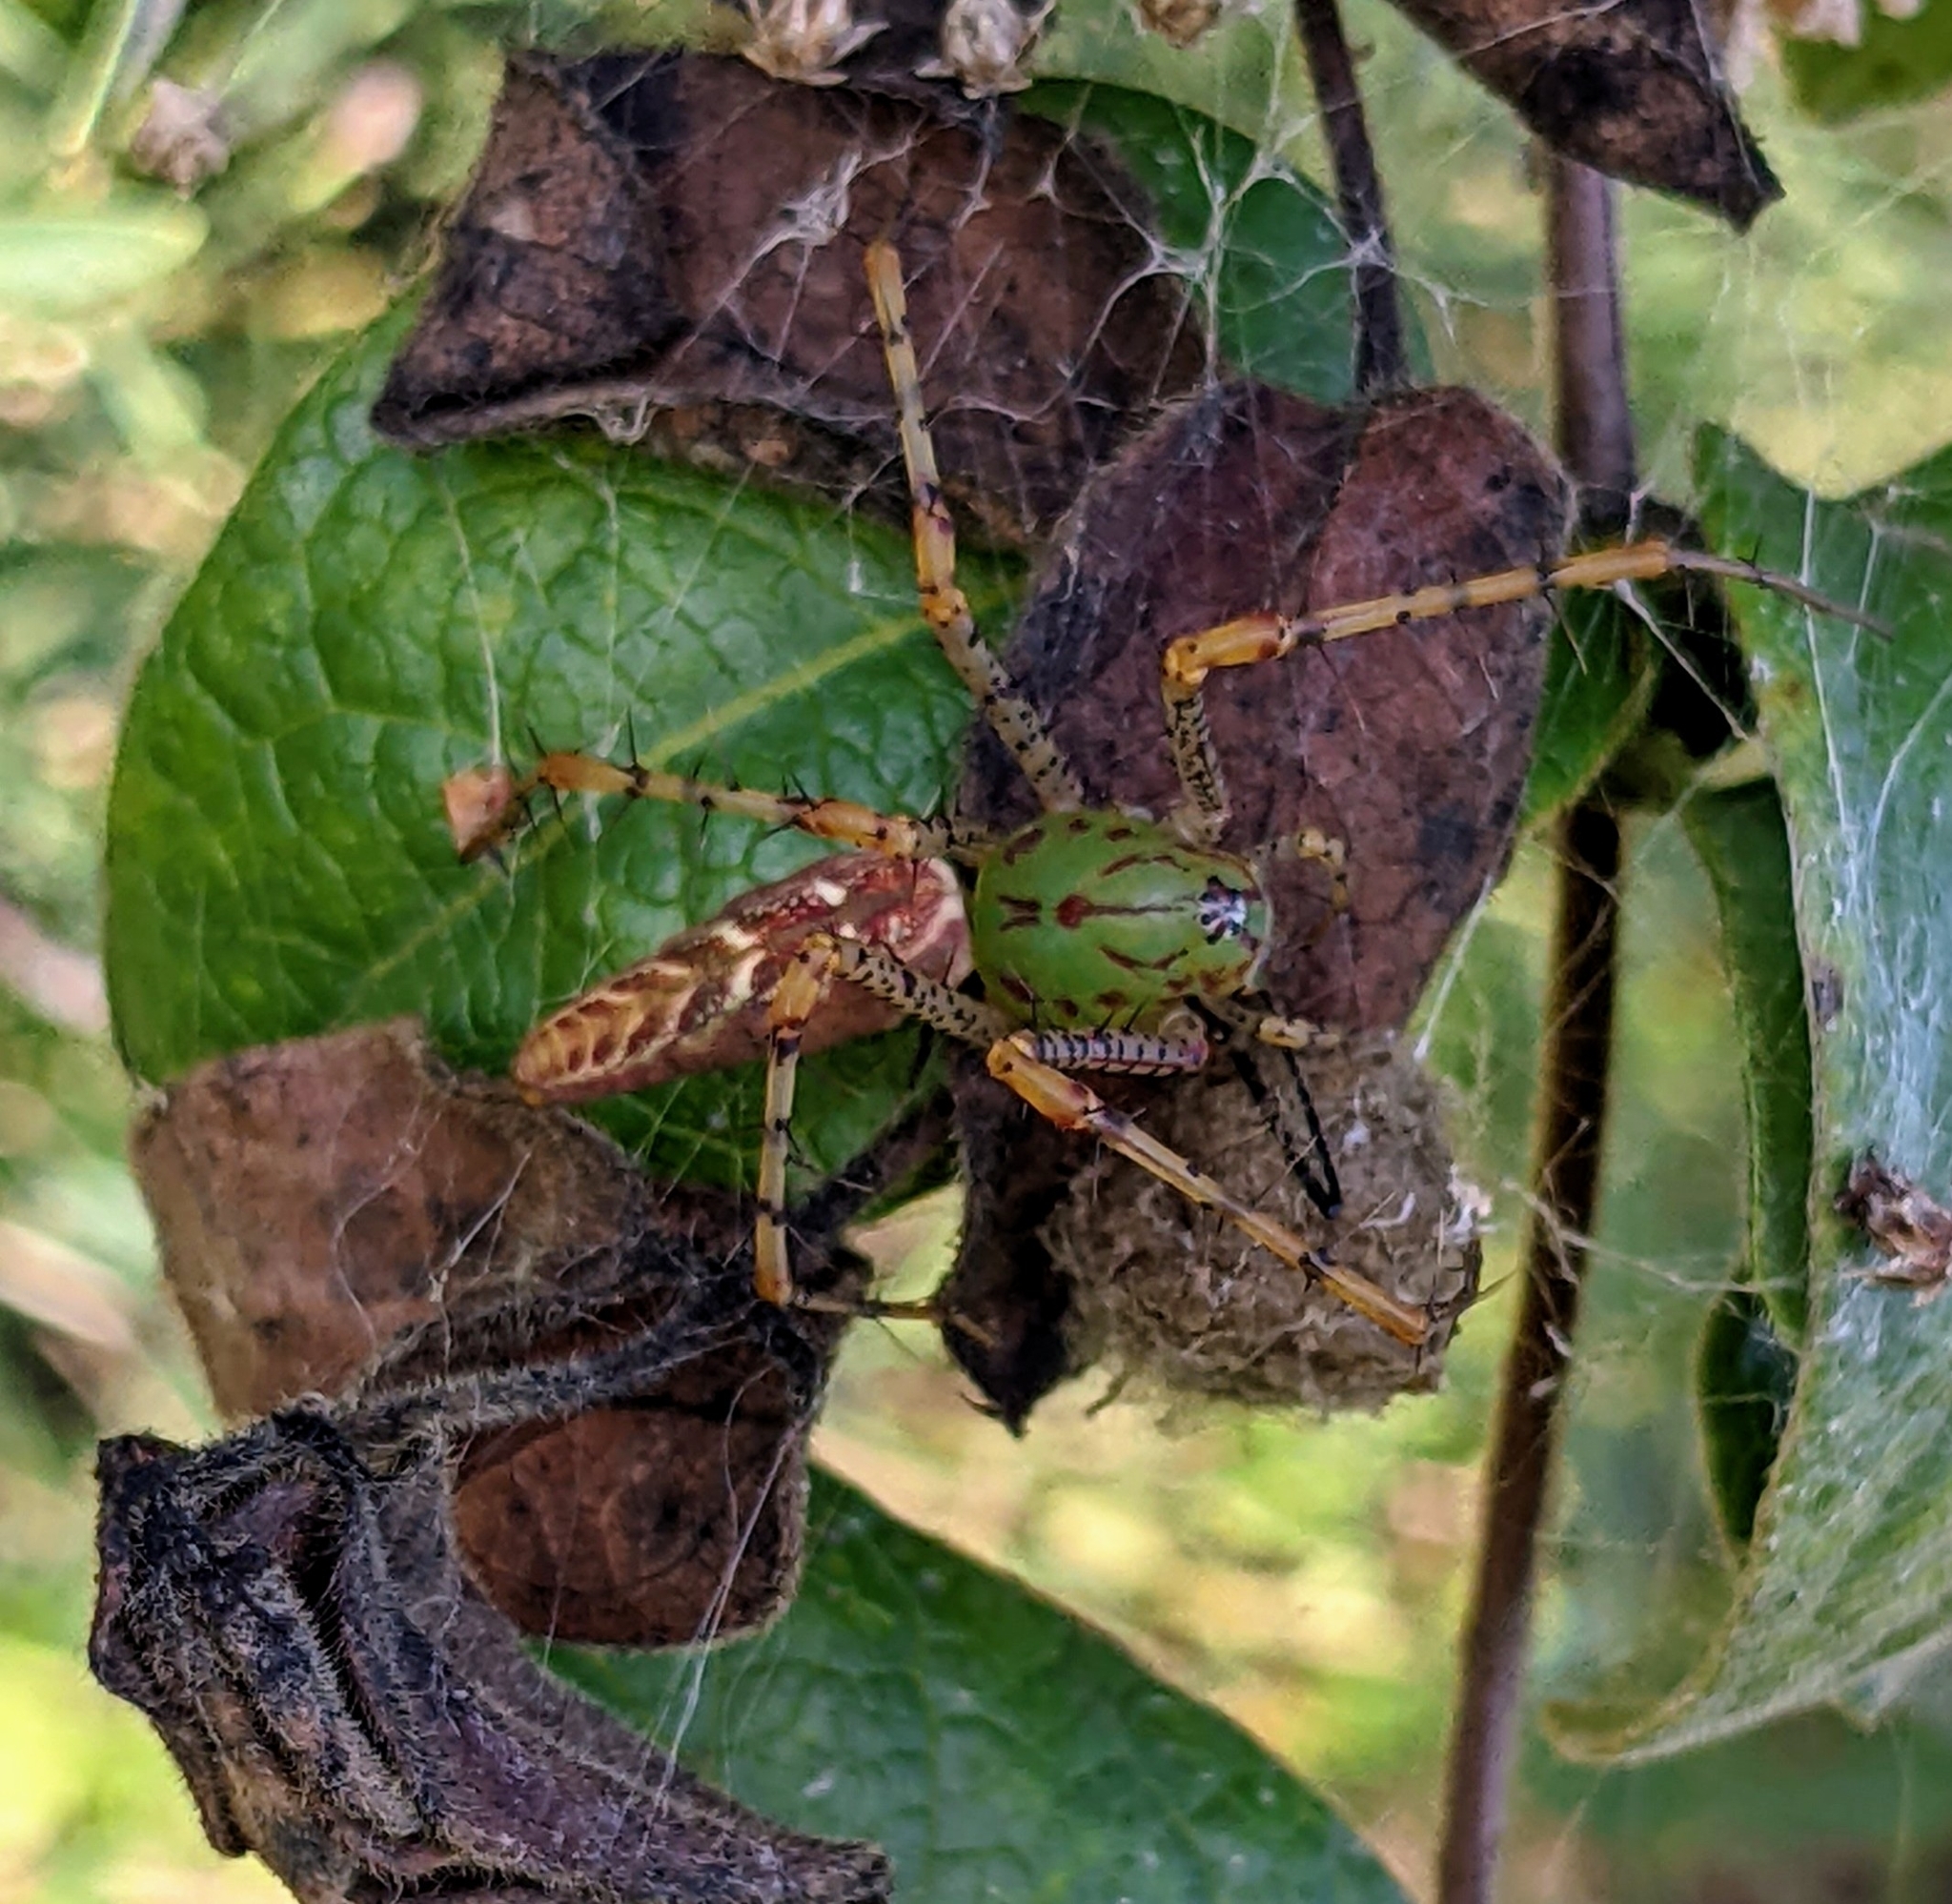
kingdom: Animalia
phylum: Arthropoda
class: Arachnida
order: Araneae
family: Oxyopidae
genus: Peucetia
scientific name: Peucetia viridans
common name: Lynx spiders
